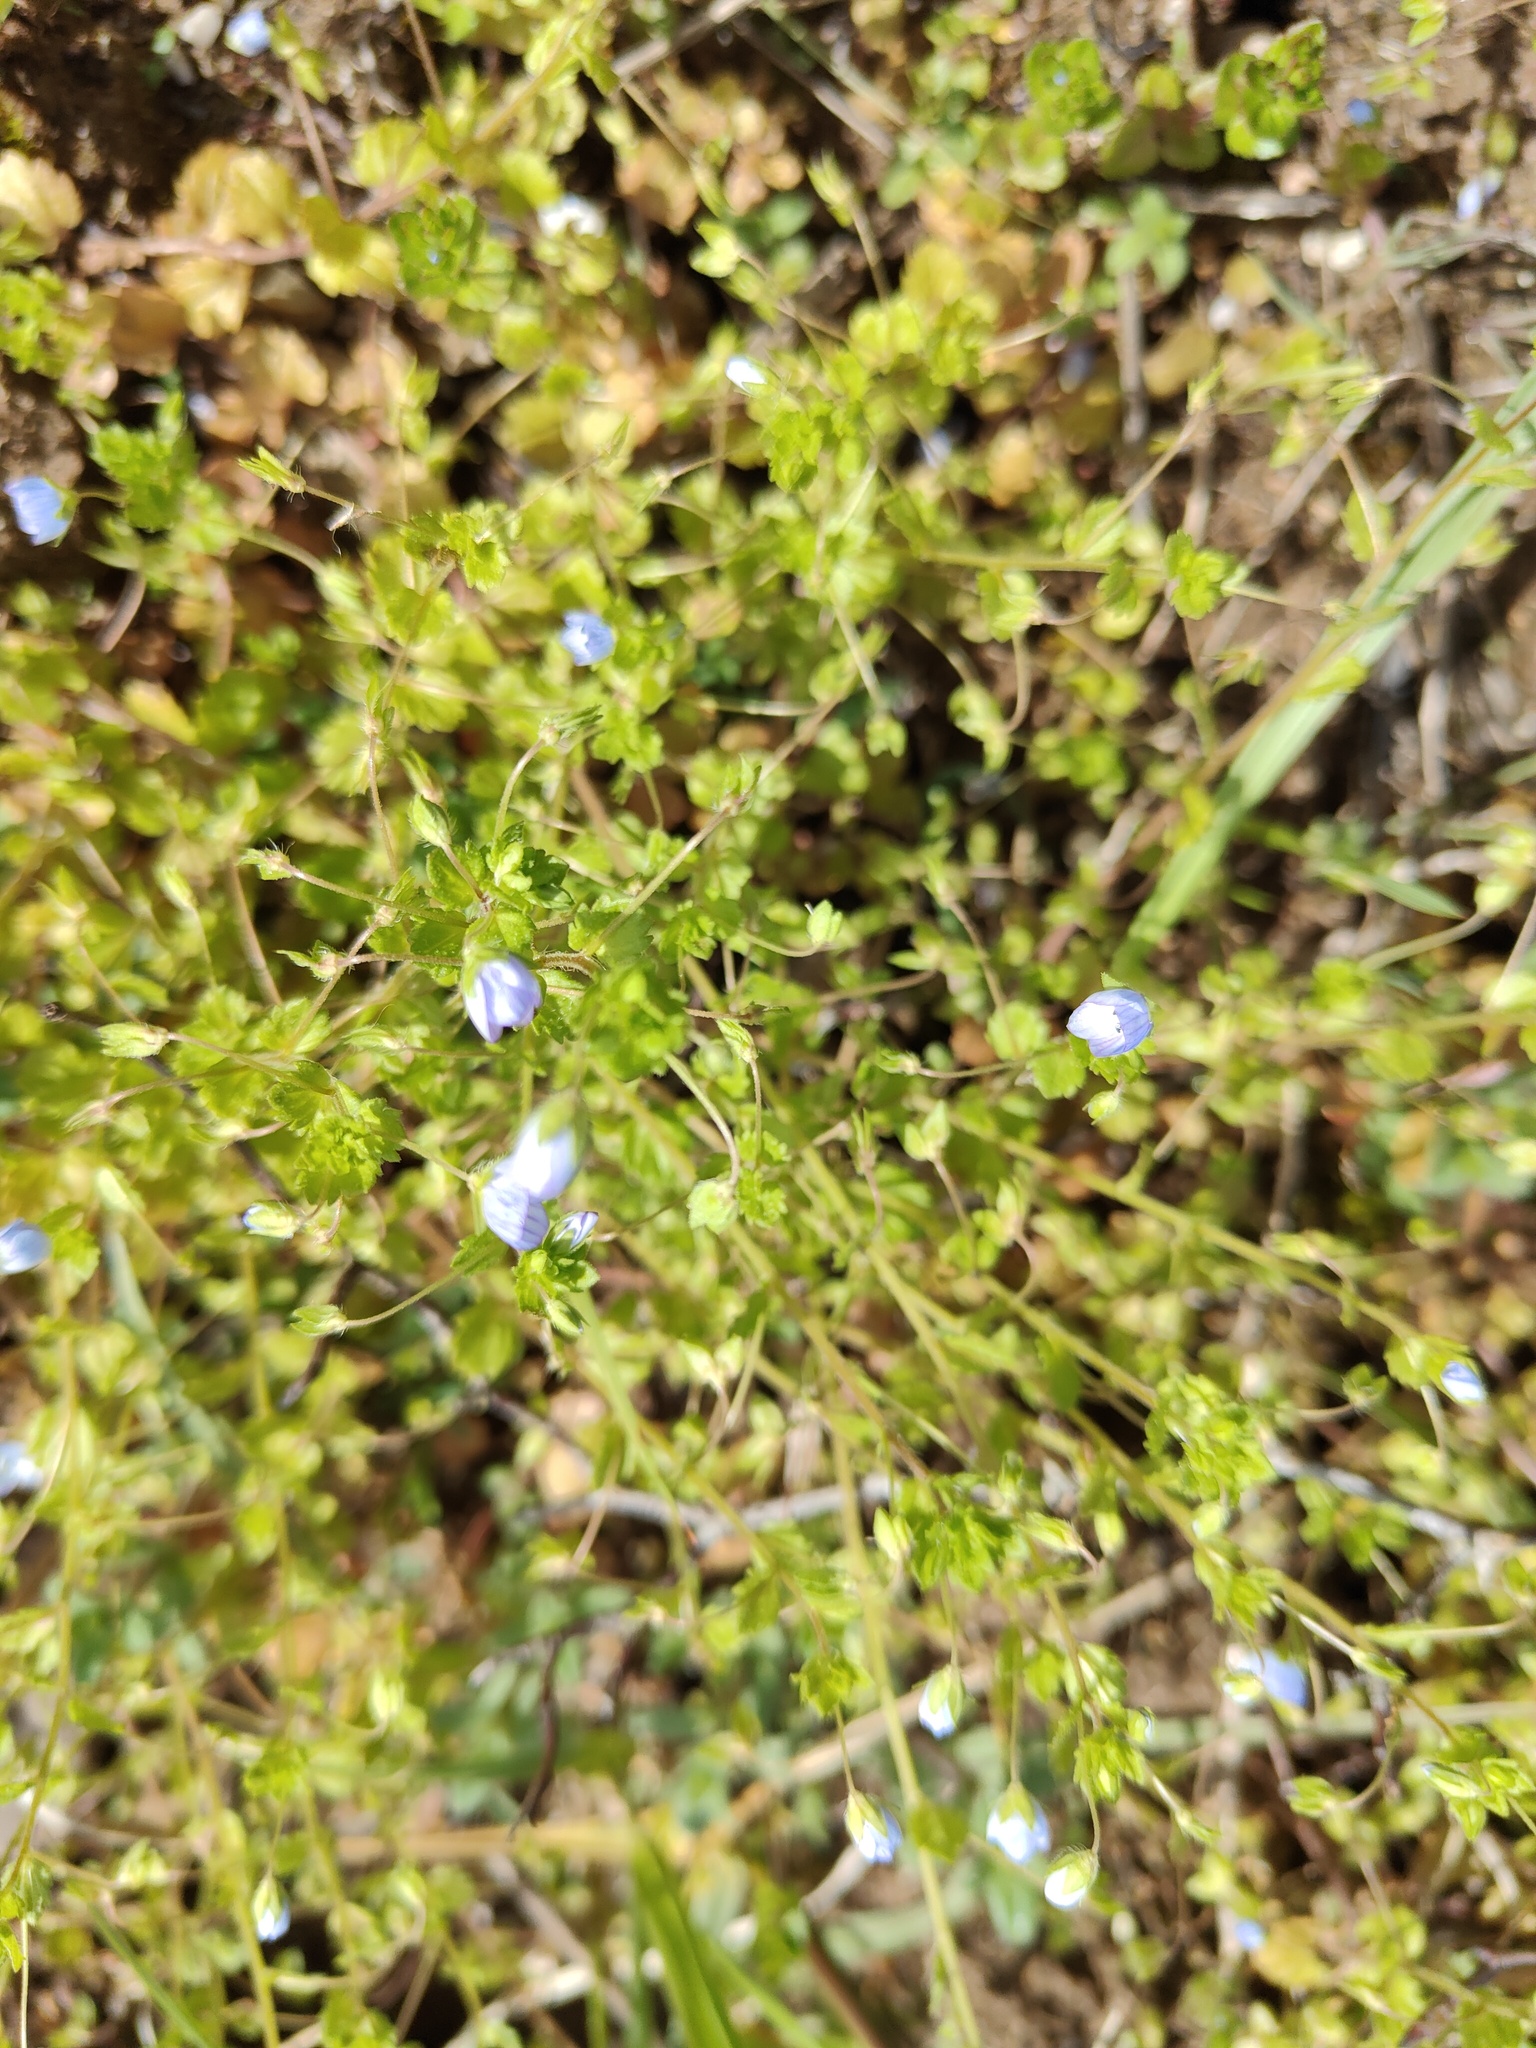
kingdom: Plantae
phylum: Tracheophyta
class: Magnoliopsida
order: Lamiales
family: Plantaginaceae
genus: Veronica
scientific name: Veronica persica
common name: Common field-speedwell
